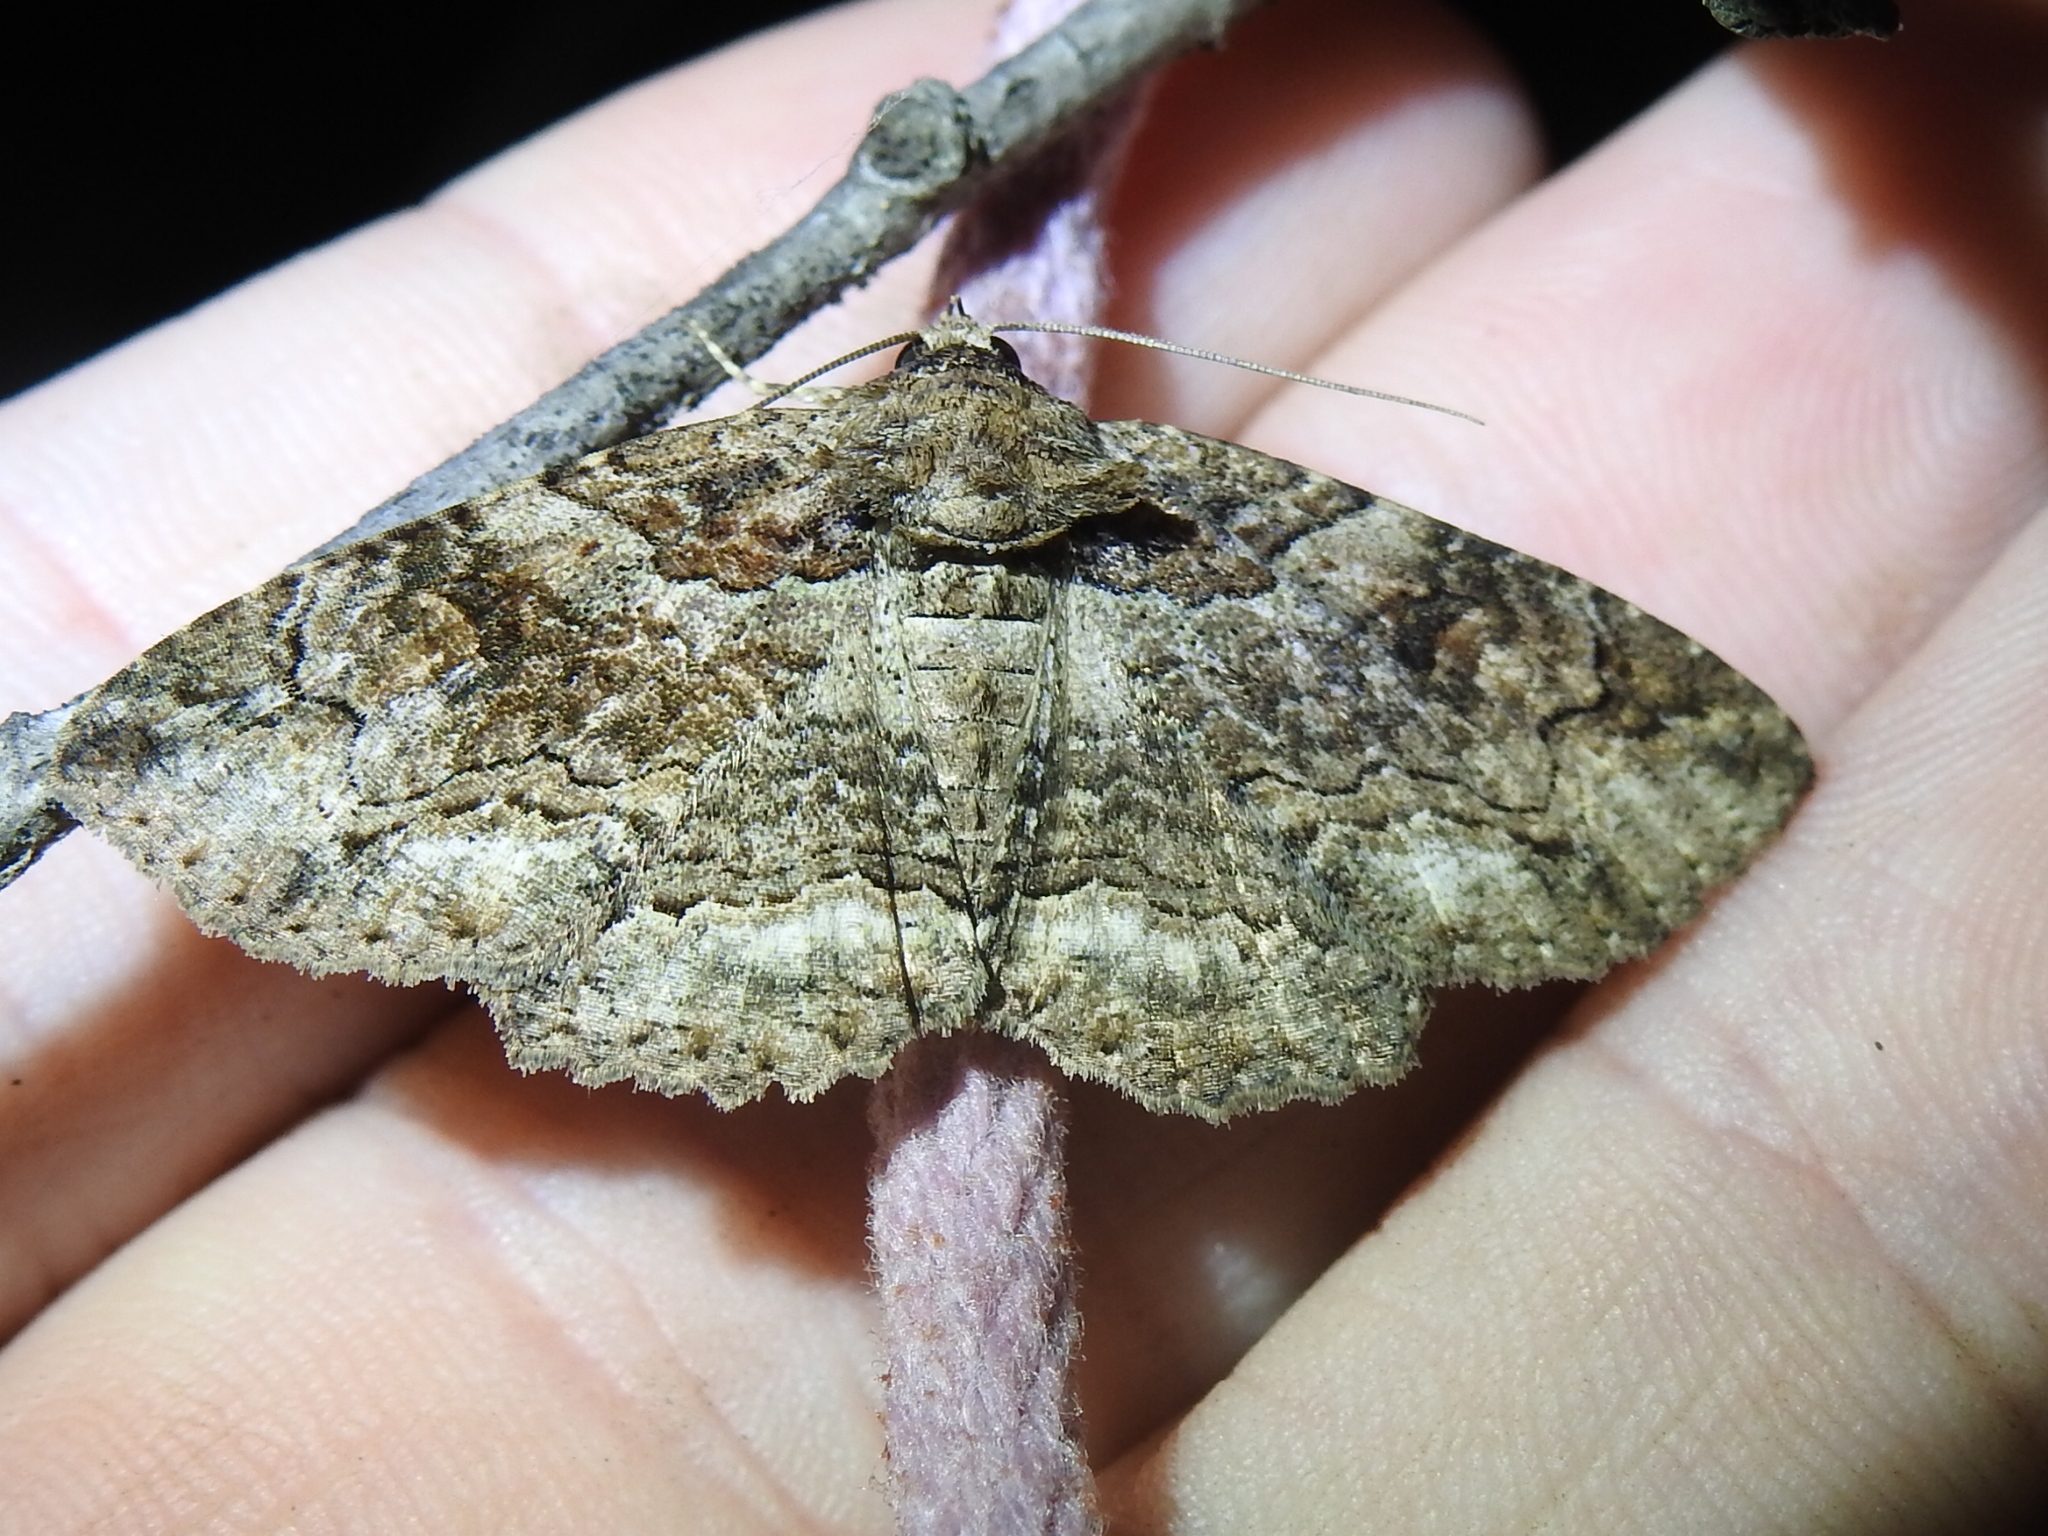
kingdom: Animalia
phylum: Arthropoda
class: Insecta
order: Lepidoptera
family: Erebidae
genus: Zale
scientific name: Zale edusina
